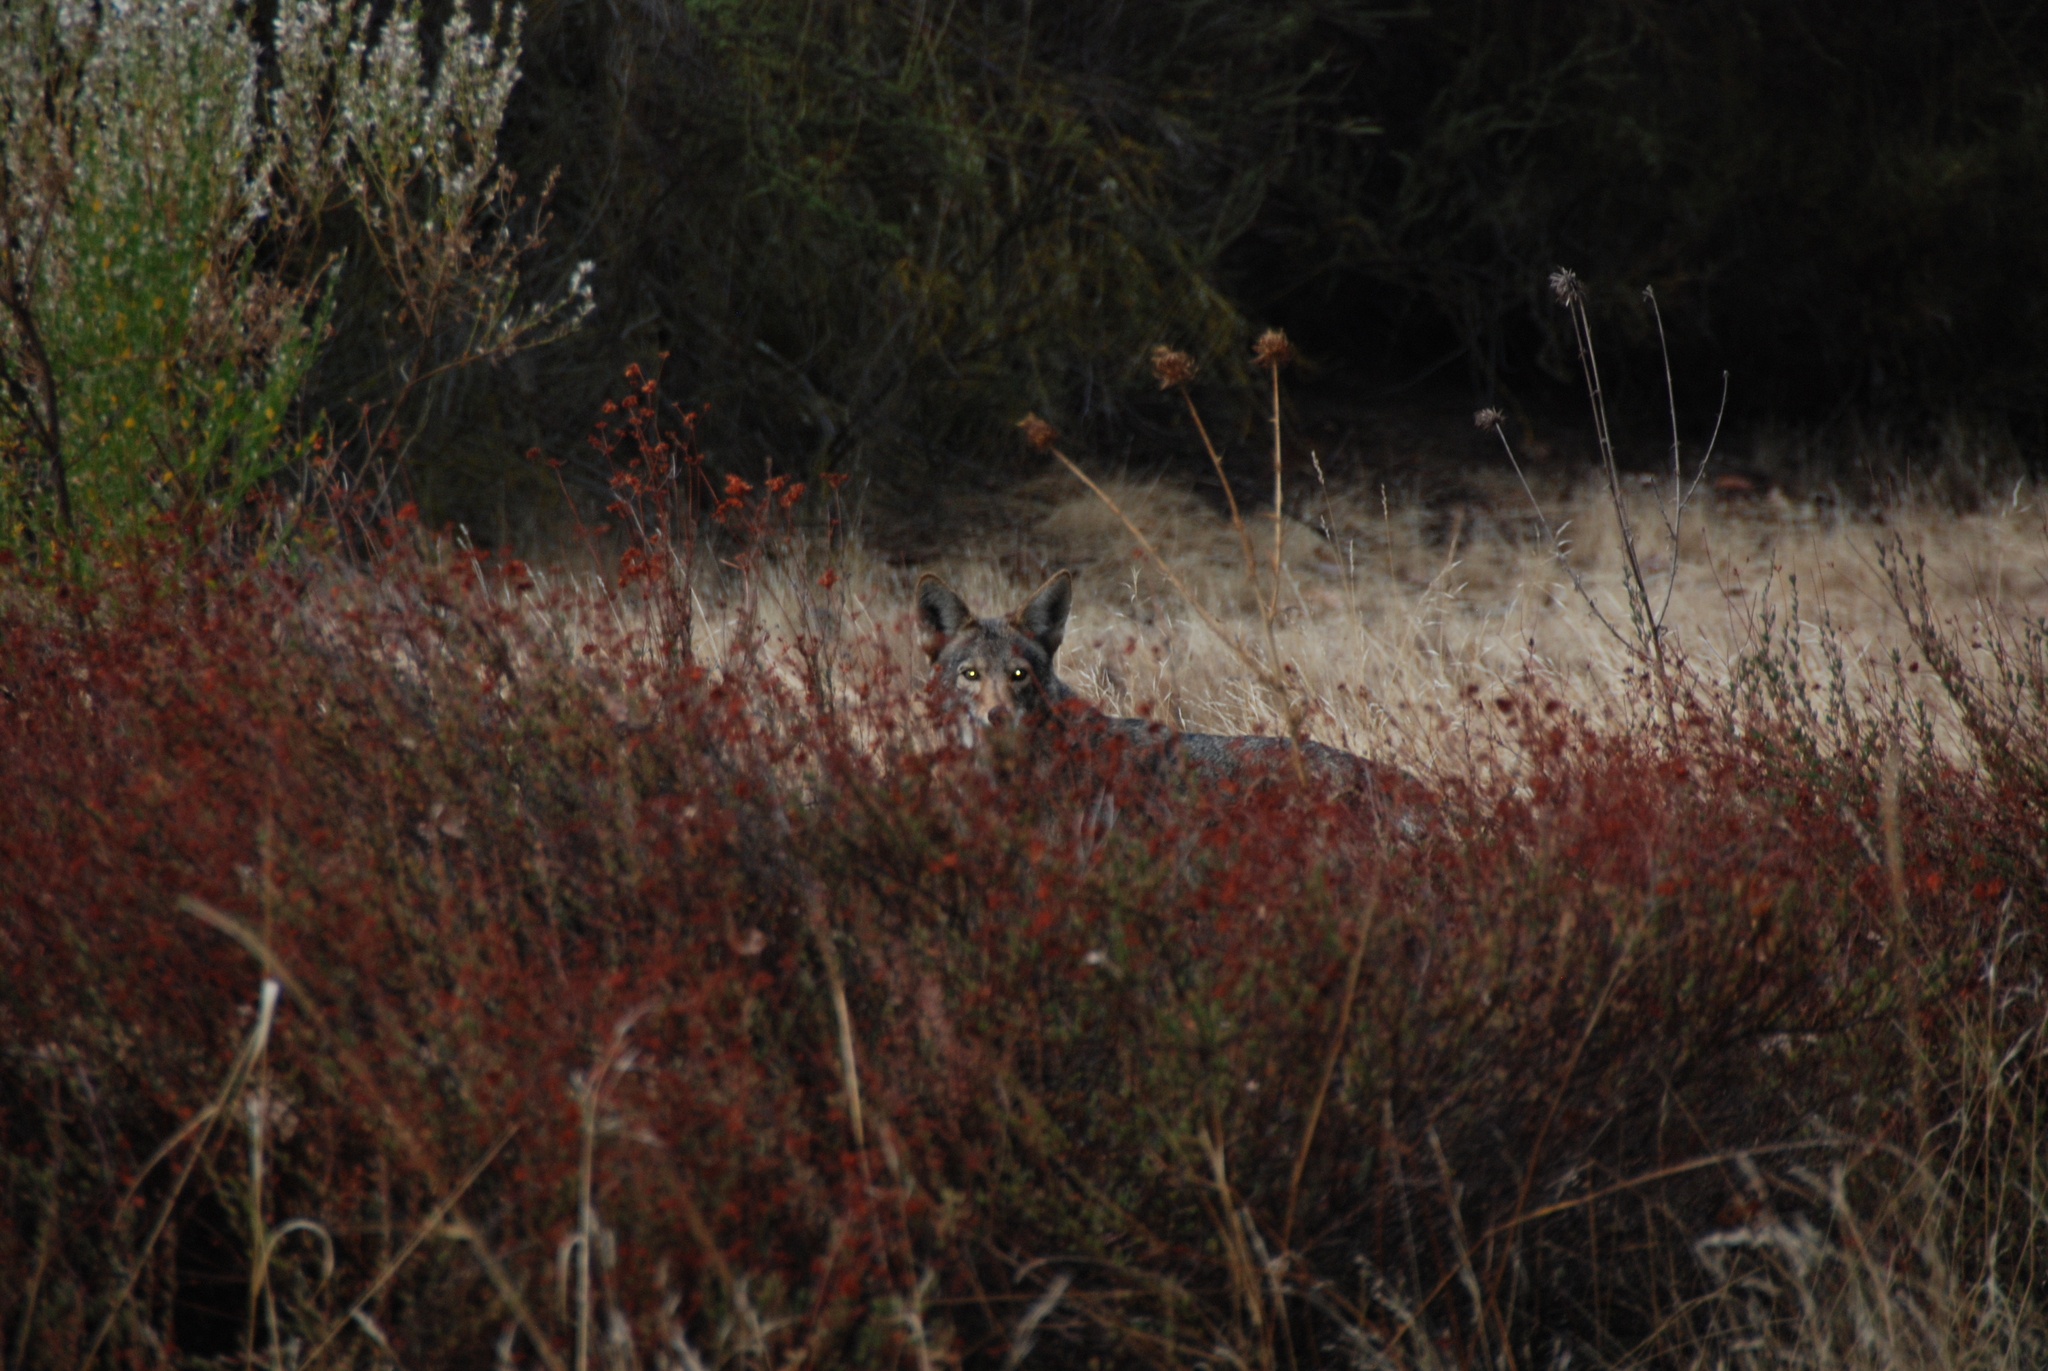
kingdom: Animalia
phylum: Chordata
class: Mammalia
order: Carnivora
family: Canidae
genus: Canis
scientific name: Canis latrans
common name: Coyote
